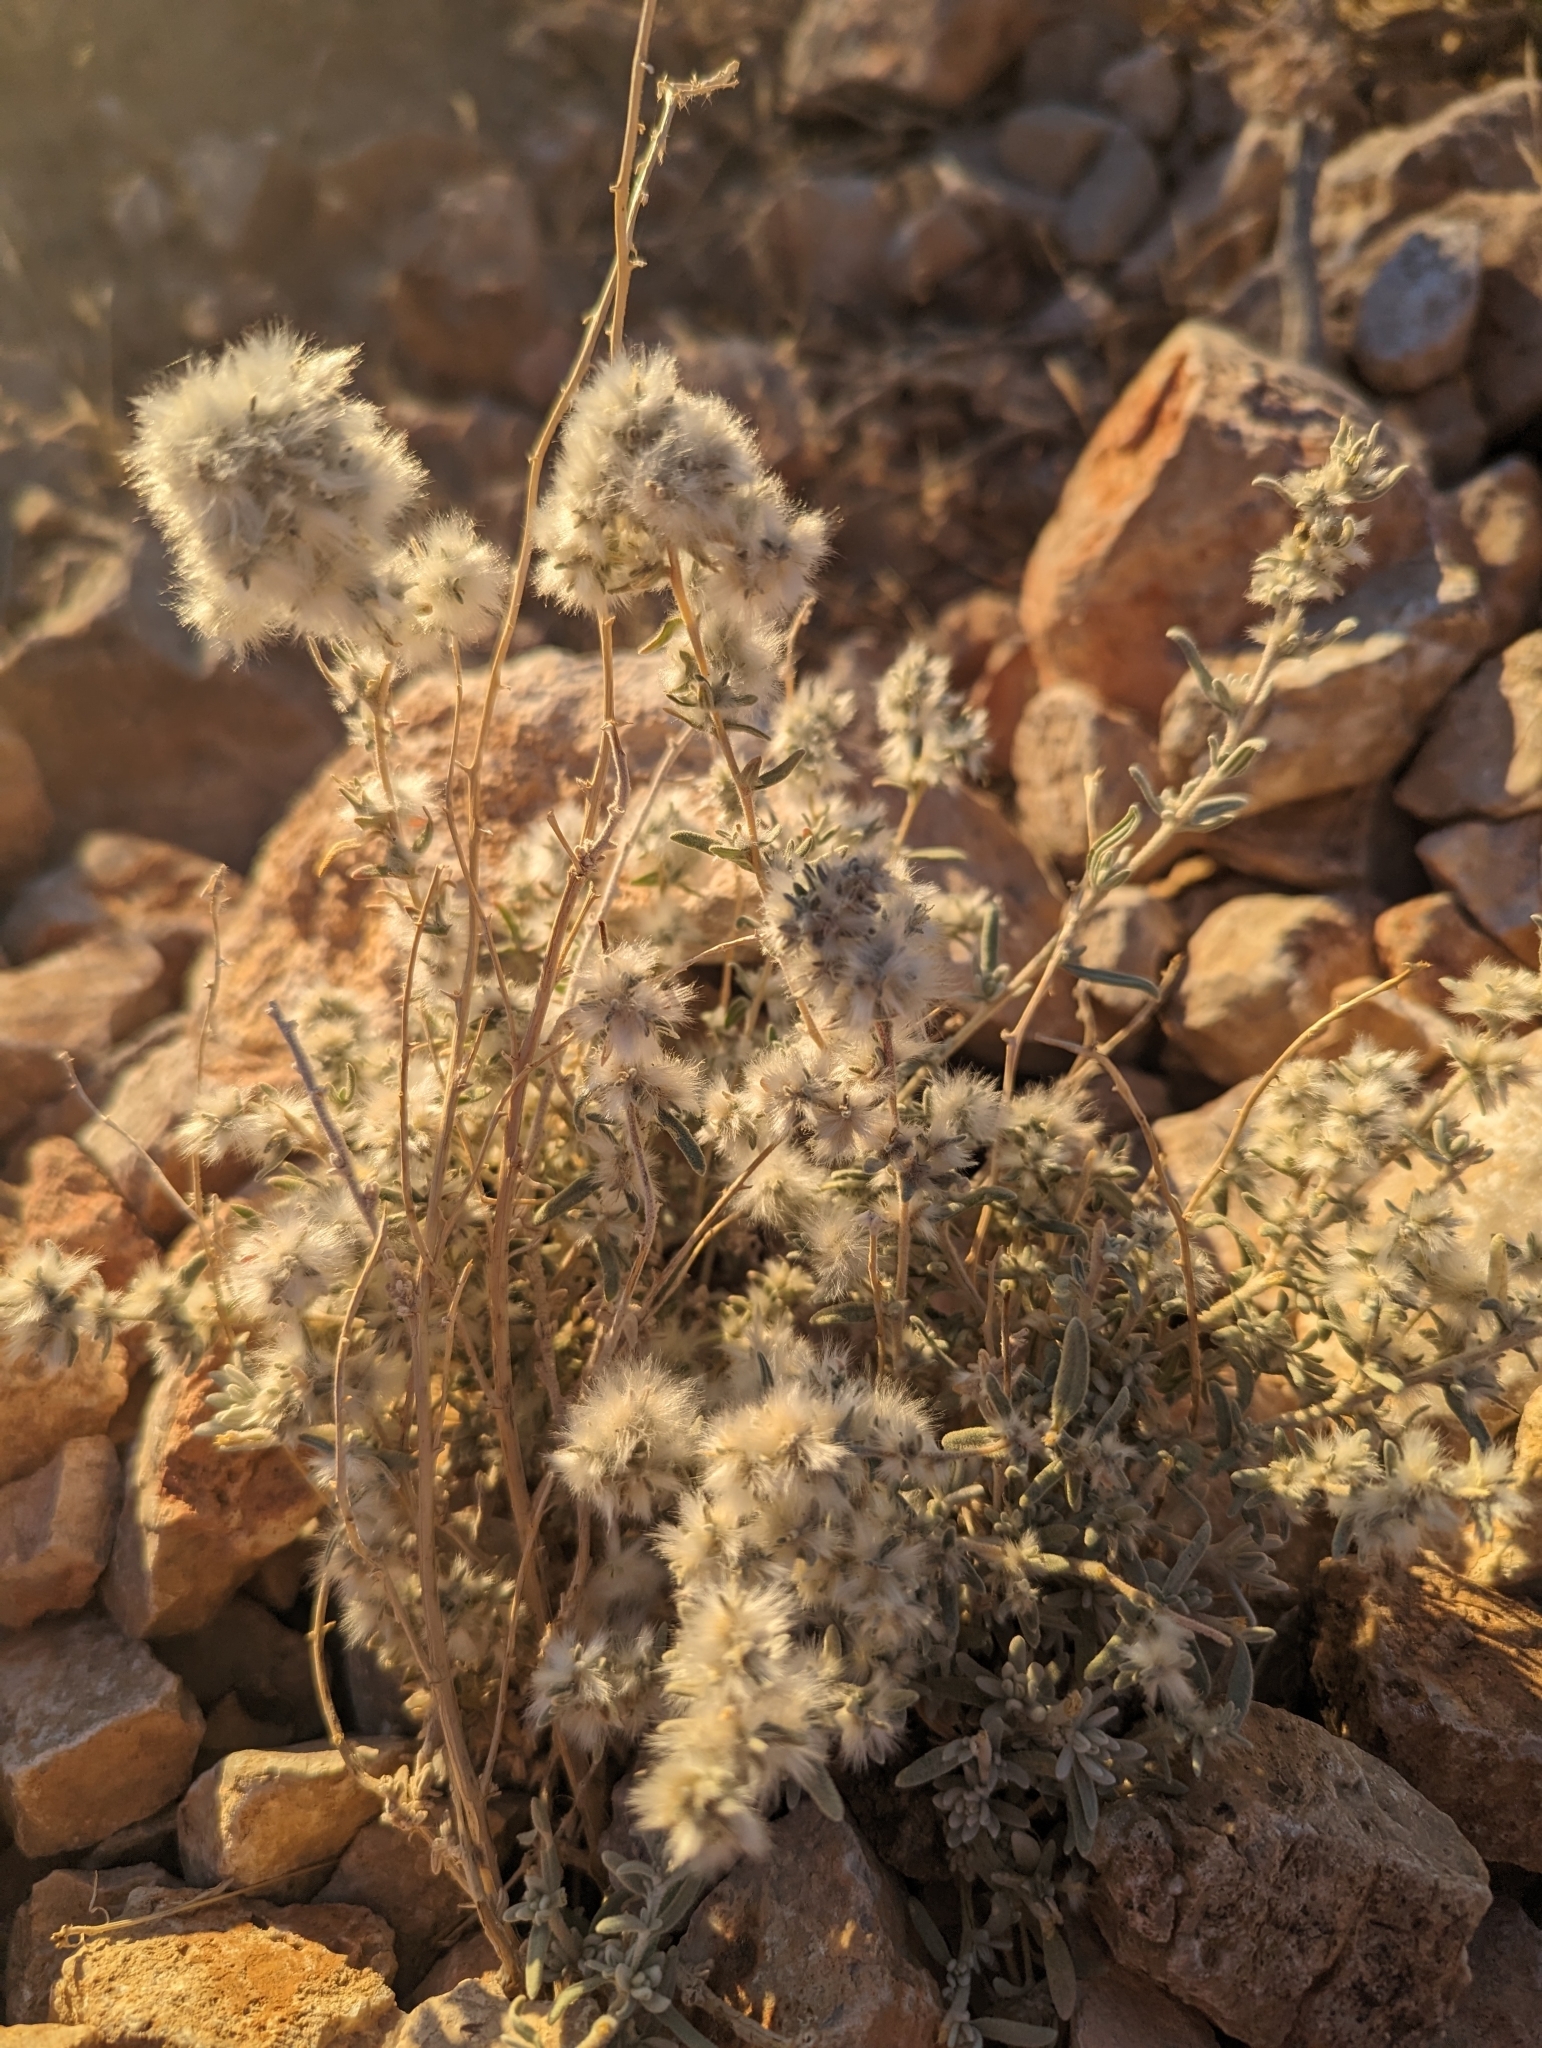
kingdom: Plantae
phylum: Tracheophyta
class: Magnoliopsida
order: Caryophyllales
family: Amaranthaceae
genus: Krascheninnikovia
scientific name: Krascheninnikovia lanata
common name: Winterfat
